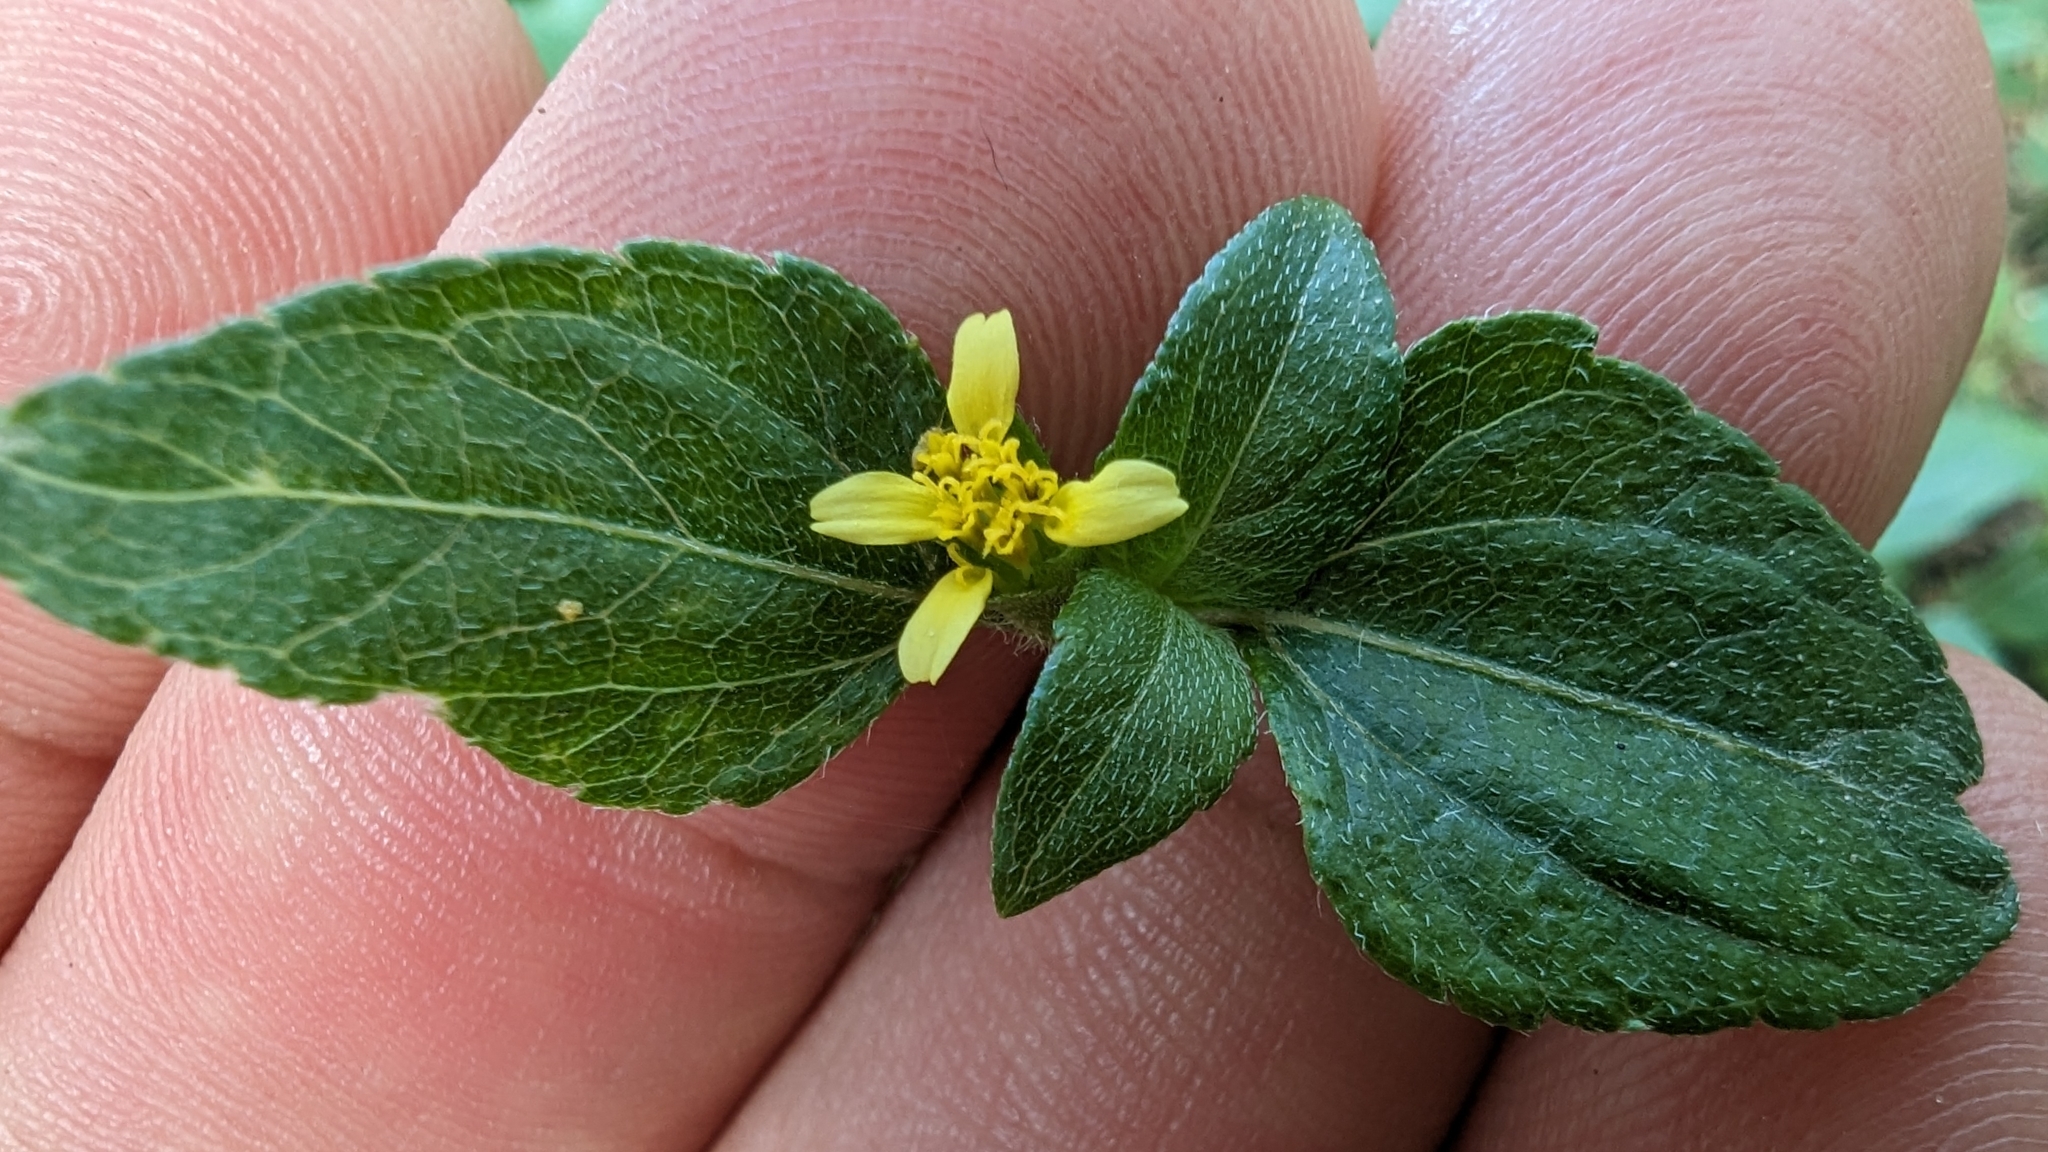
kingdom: Plantae
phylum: Tracheophyta
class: Magnoliopsida
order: Asterales
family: Asteraceae
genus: Calyptocarpus
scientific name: Calyptocarpus vialis
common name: Straggler daisy
